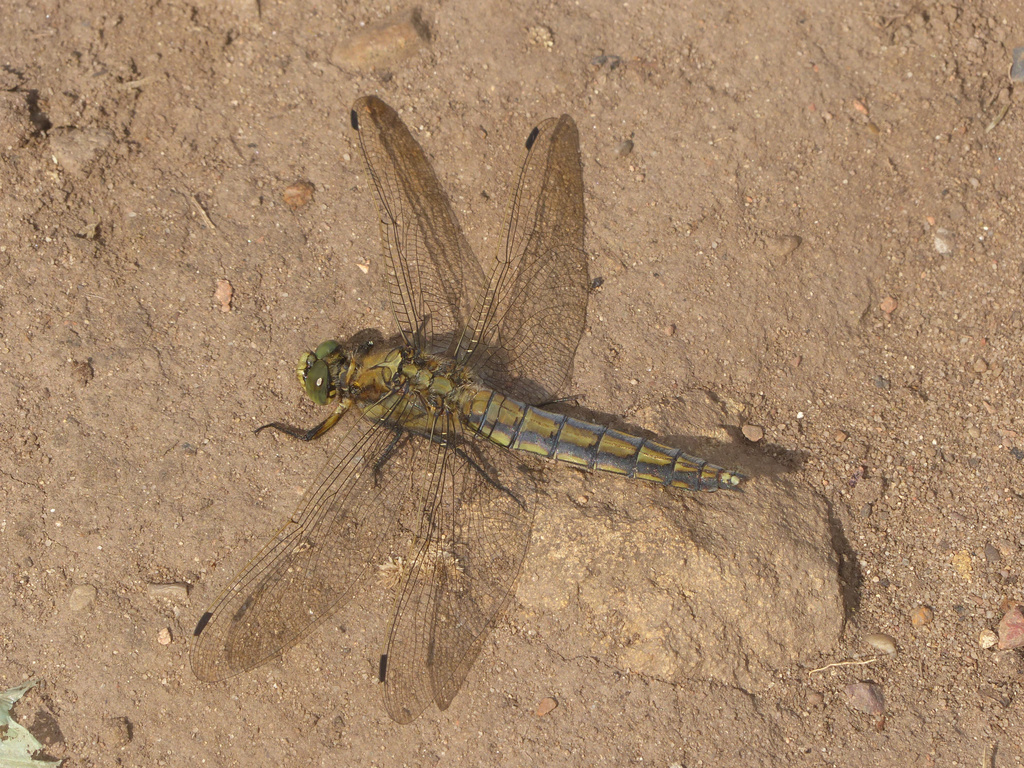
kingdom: Animalia
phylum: Arthropoda
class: Insecta
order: Odonata
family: Libellulidae
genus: Orthetrum
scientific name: Orthetrum cancellatum
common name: Black-tailed skimmer
